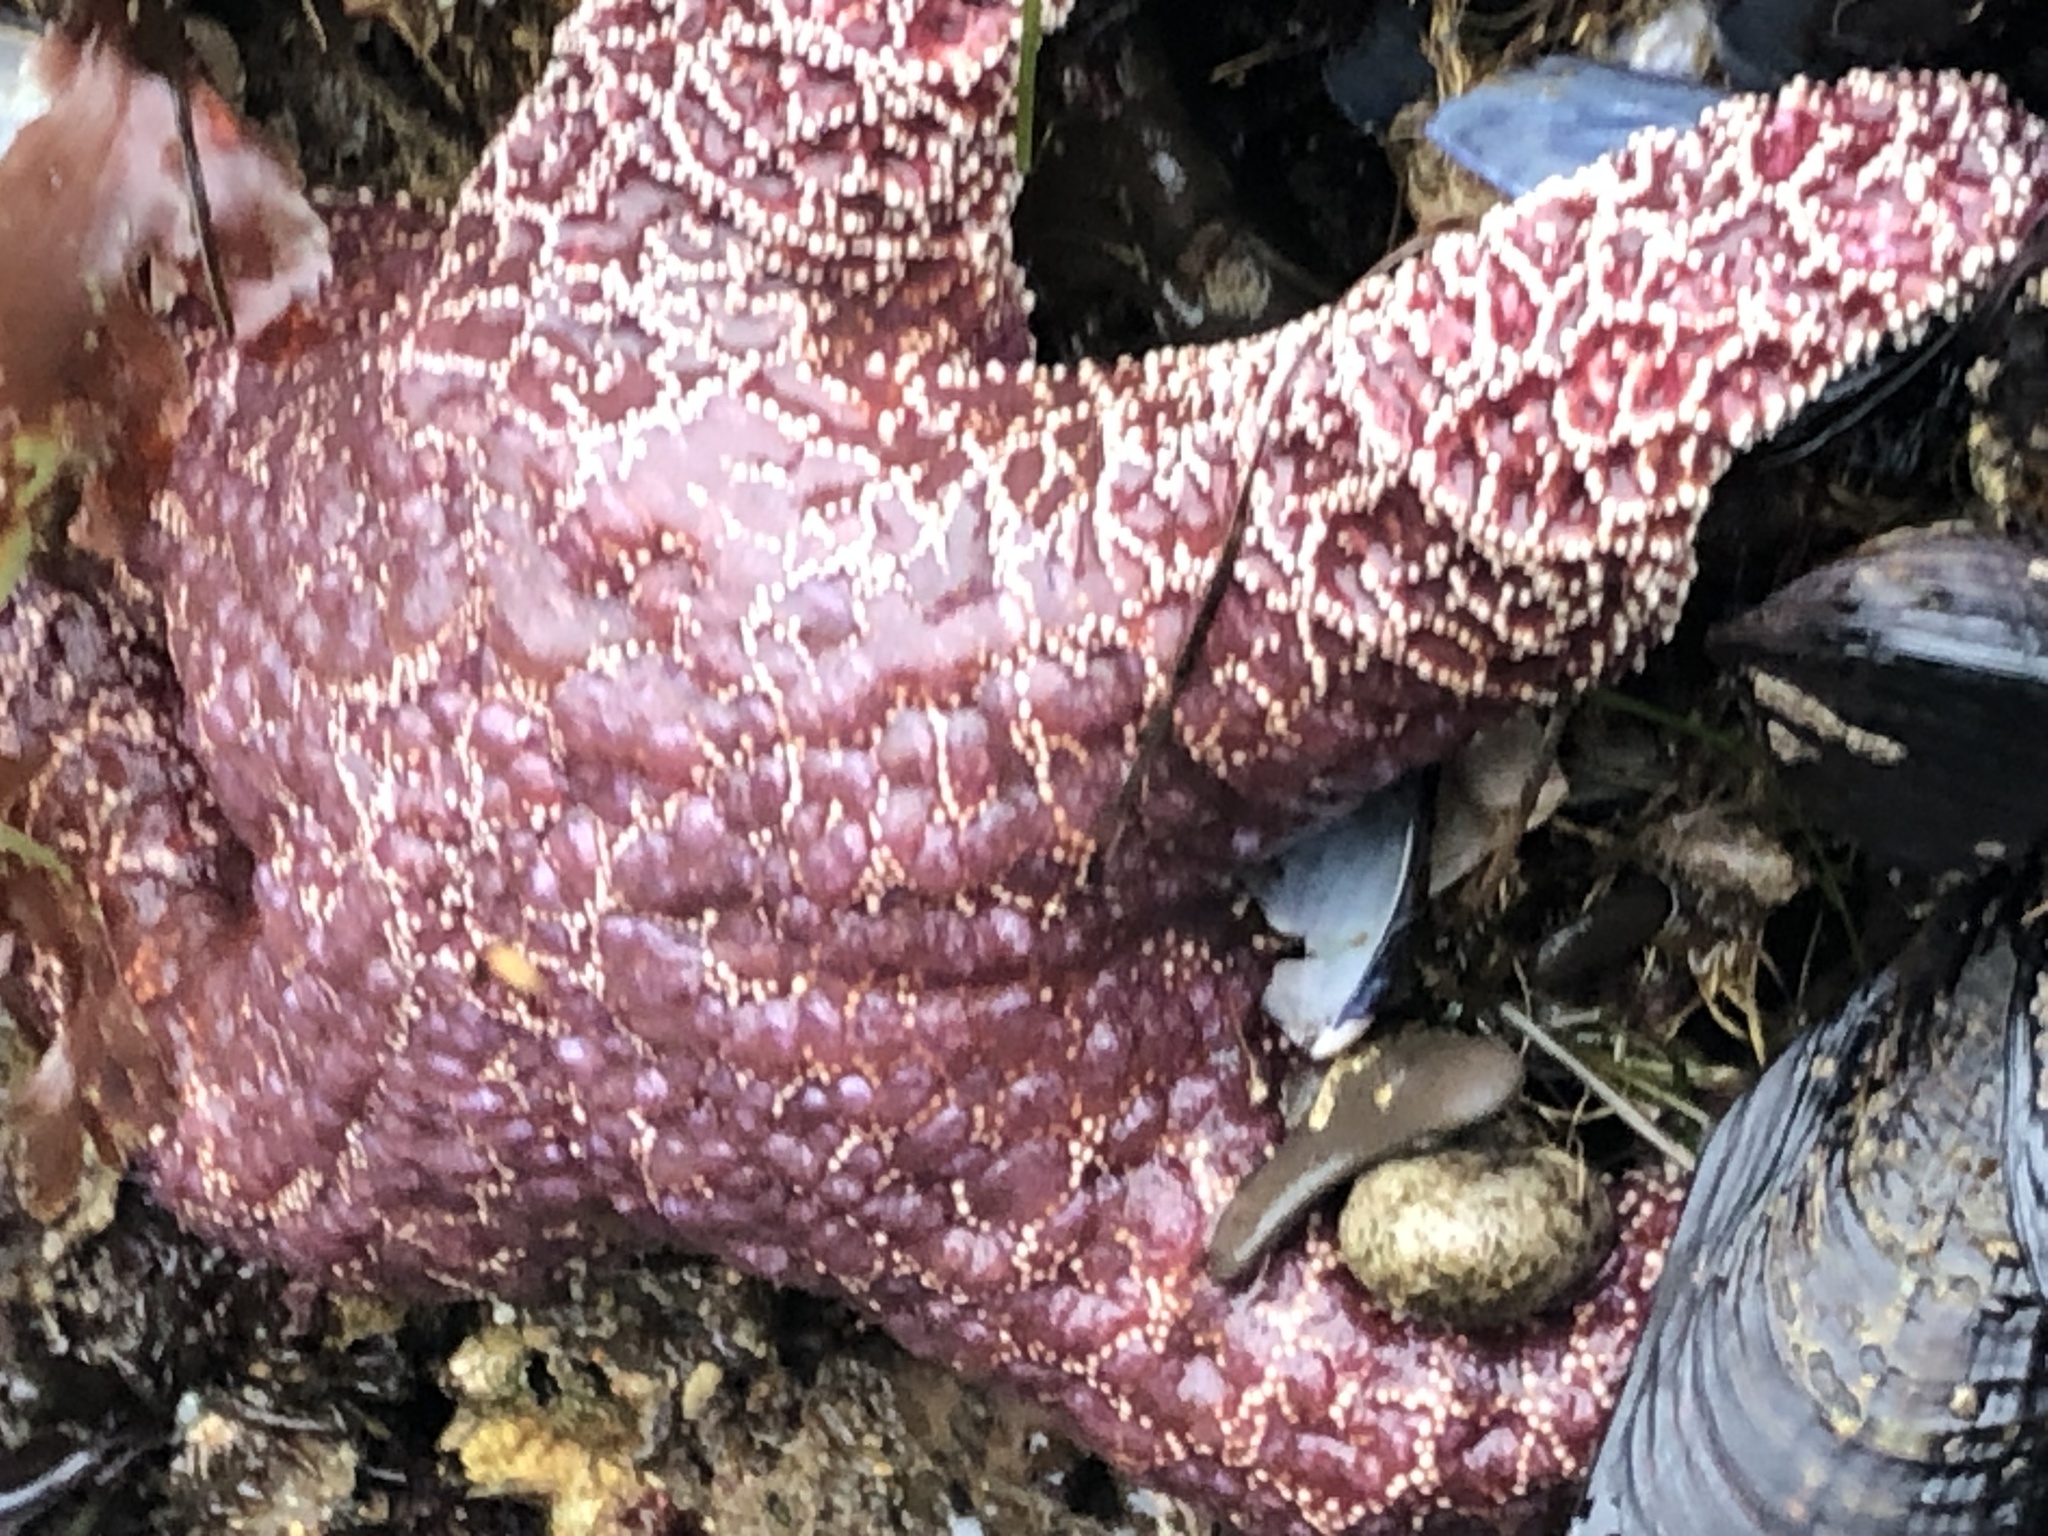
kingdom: Animalia
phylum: Echinodermata
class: Asteroidea
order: Forcipulatida
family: Asteriidae
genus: Pisaster
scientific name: Pisaster ochraceus
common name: Ochre stars
